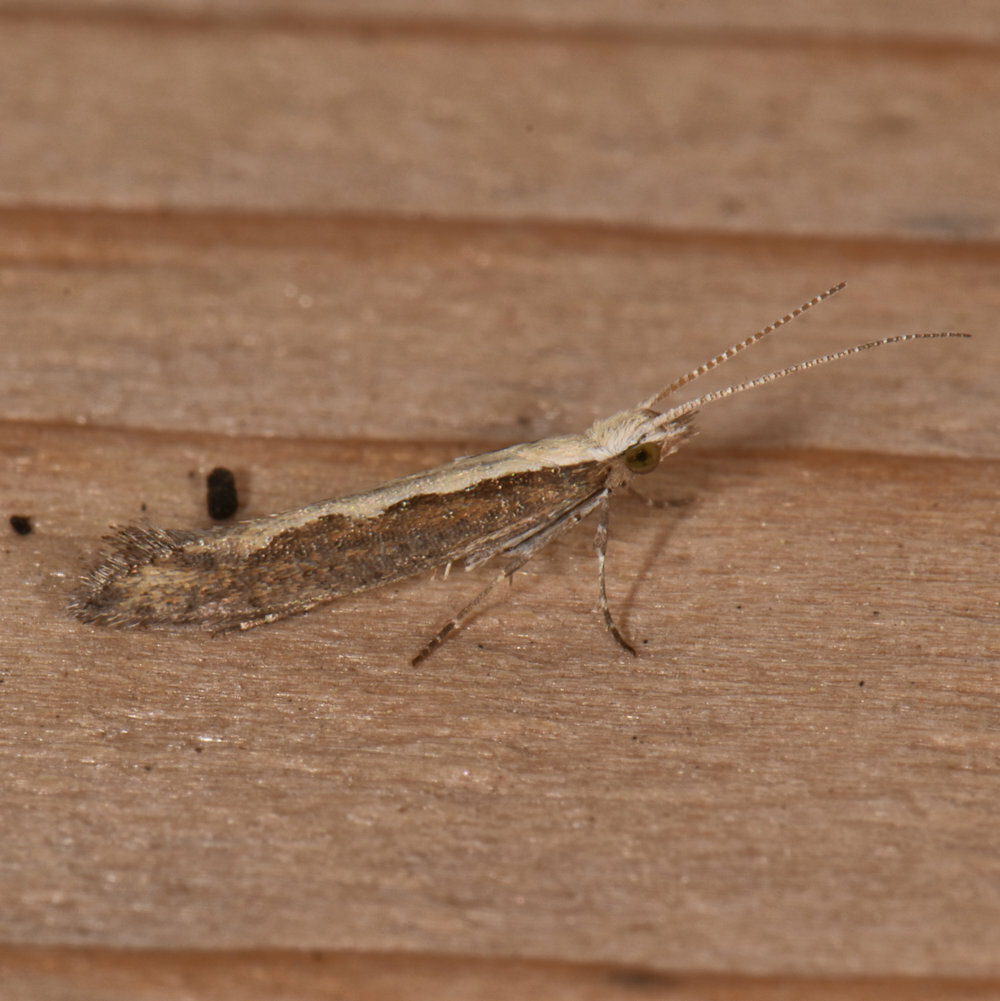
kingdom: Animalia
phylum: Arthropoda
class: Insecta
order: Lepidoptera
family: Plutellidae
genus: Plutella
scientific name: Plutella xylostella
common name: Diamond-back moth
